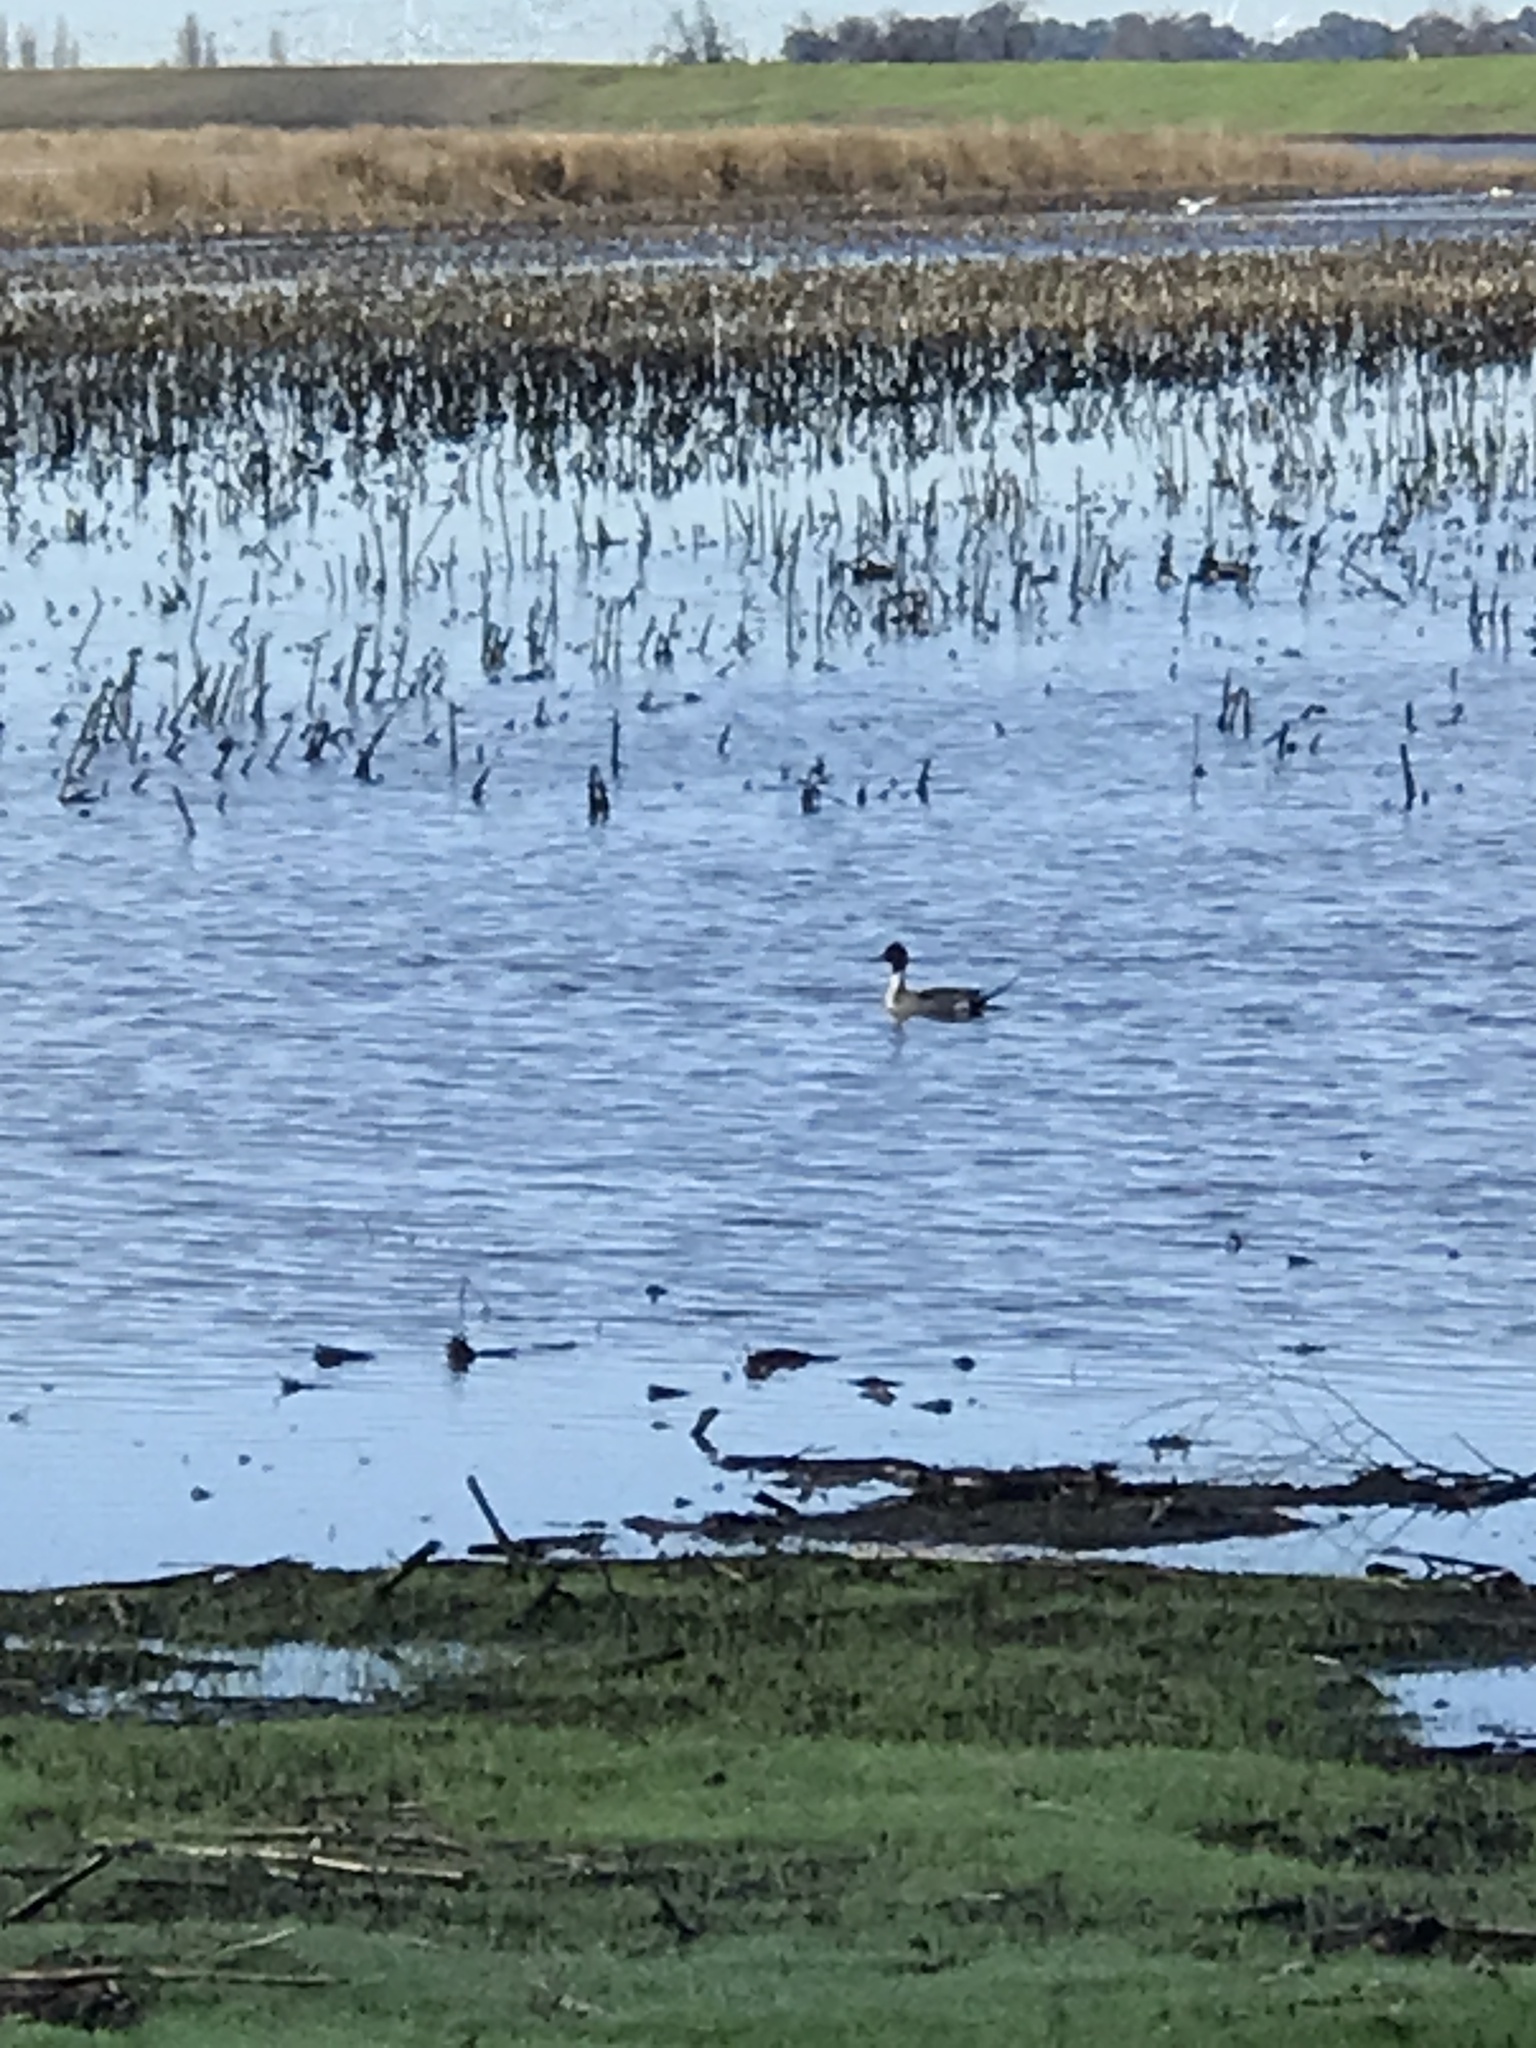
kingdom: Animalia
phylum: Chordata
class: Aves
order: Anseriformes
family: Anatidae
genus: Anas
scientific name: Anas acuta
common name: Northern pintail
